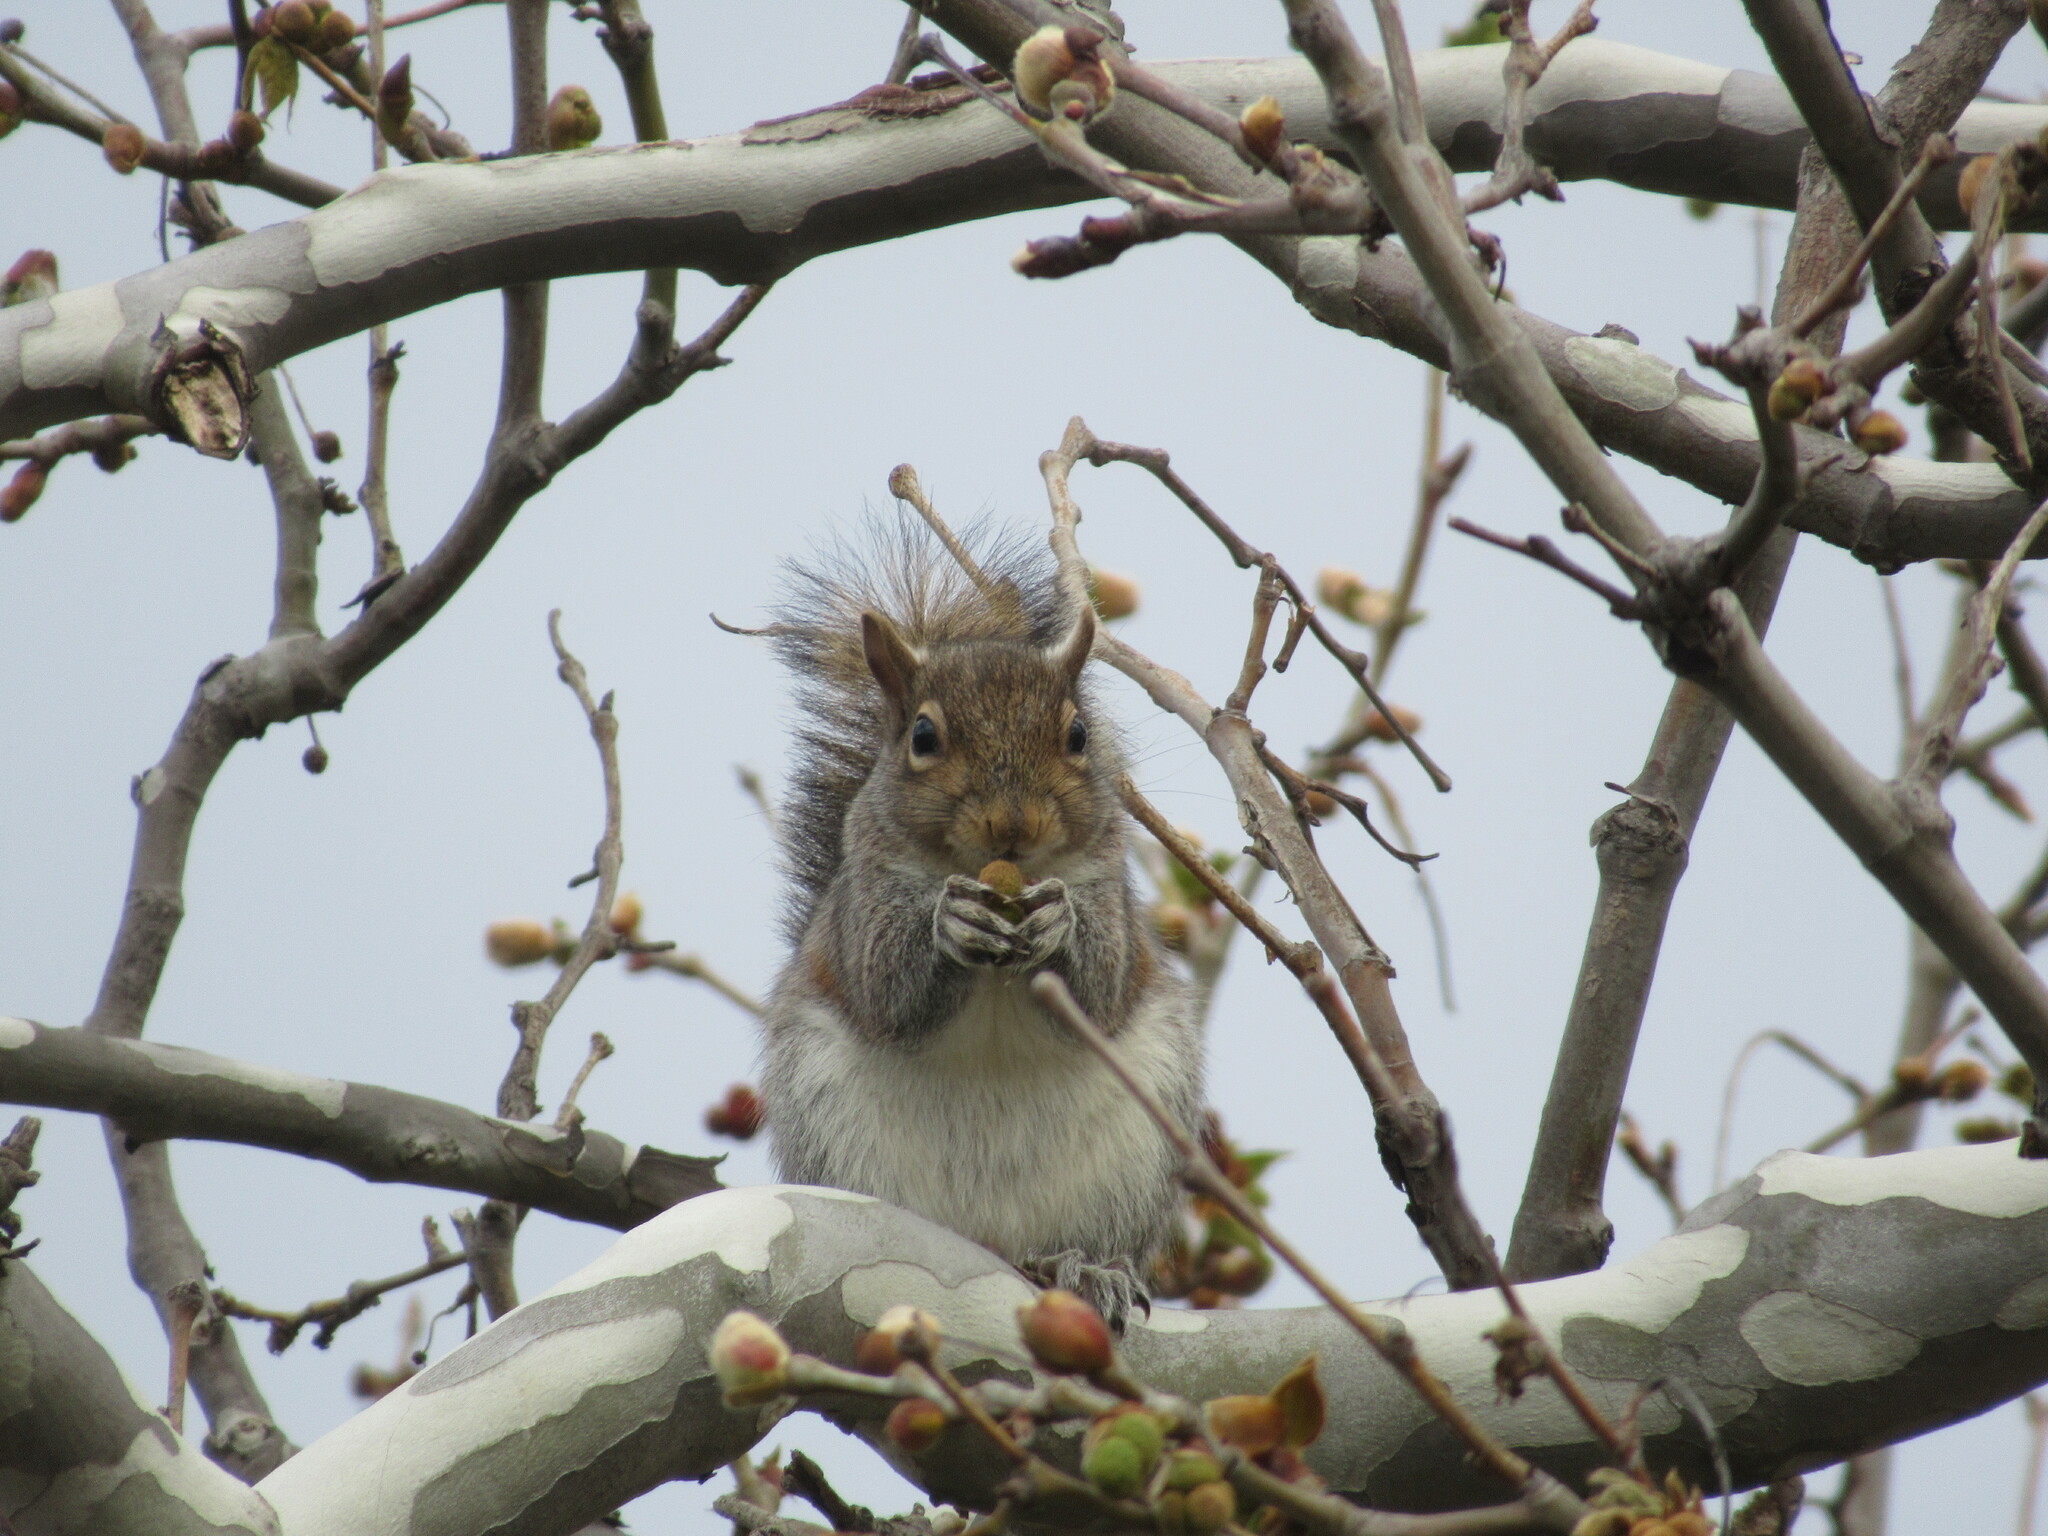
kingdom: Animalia
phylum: Chordata
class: Mammalia
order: Rodentia
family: Sciuridae
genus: Sciurus
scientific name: Sciurus carolinensis
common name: Eastern gray squirrel
